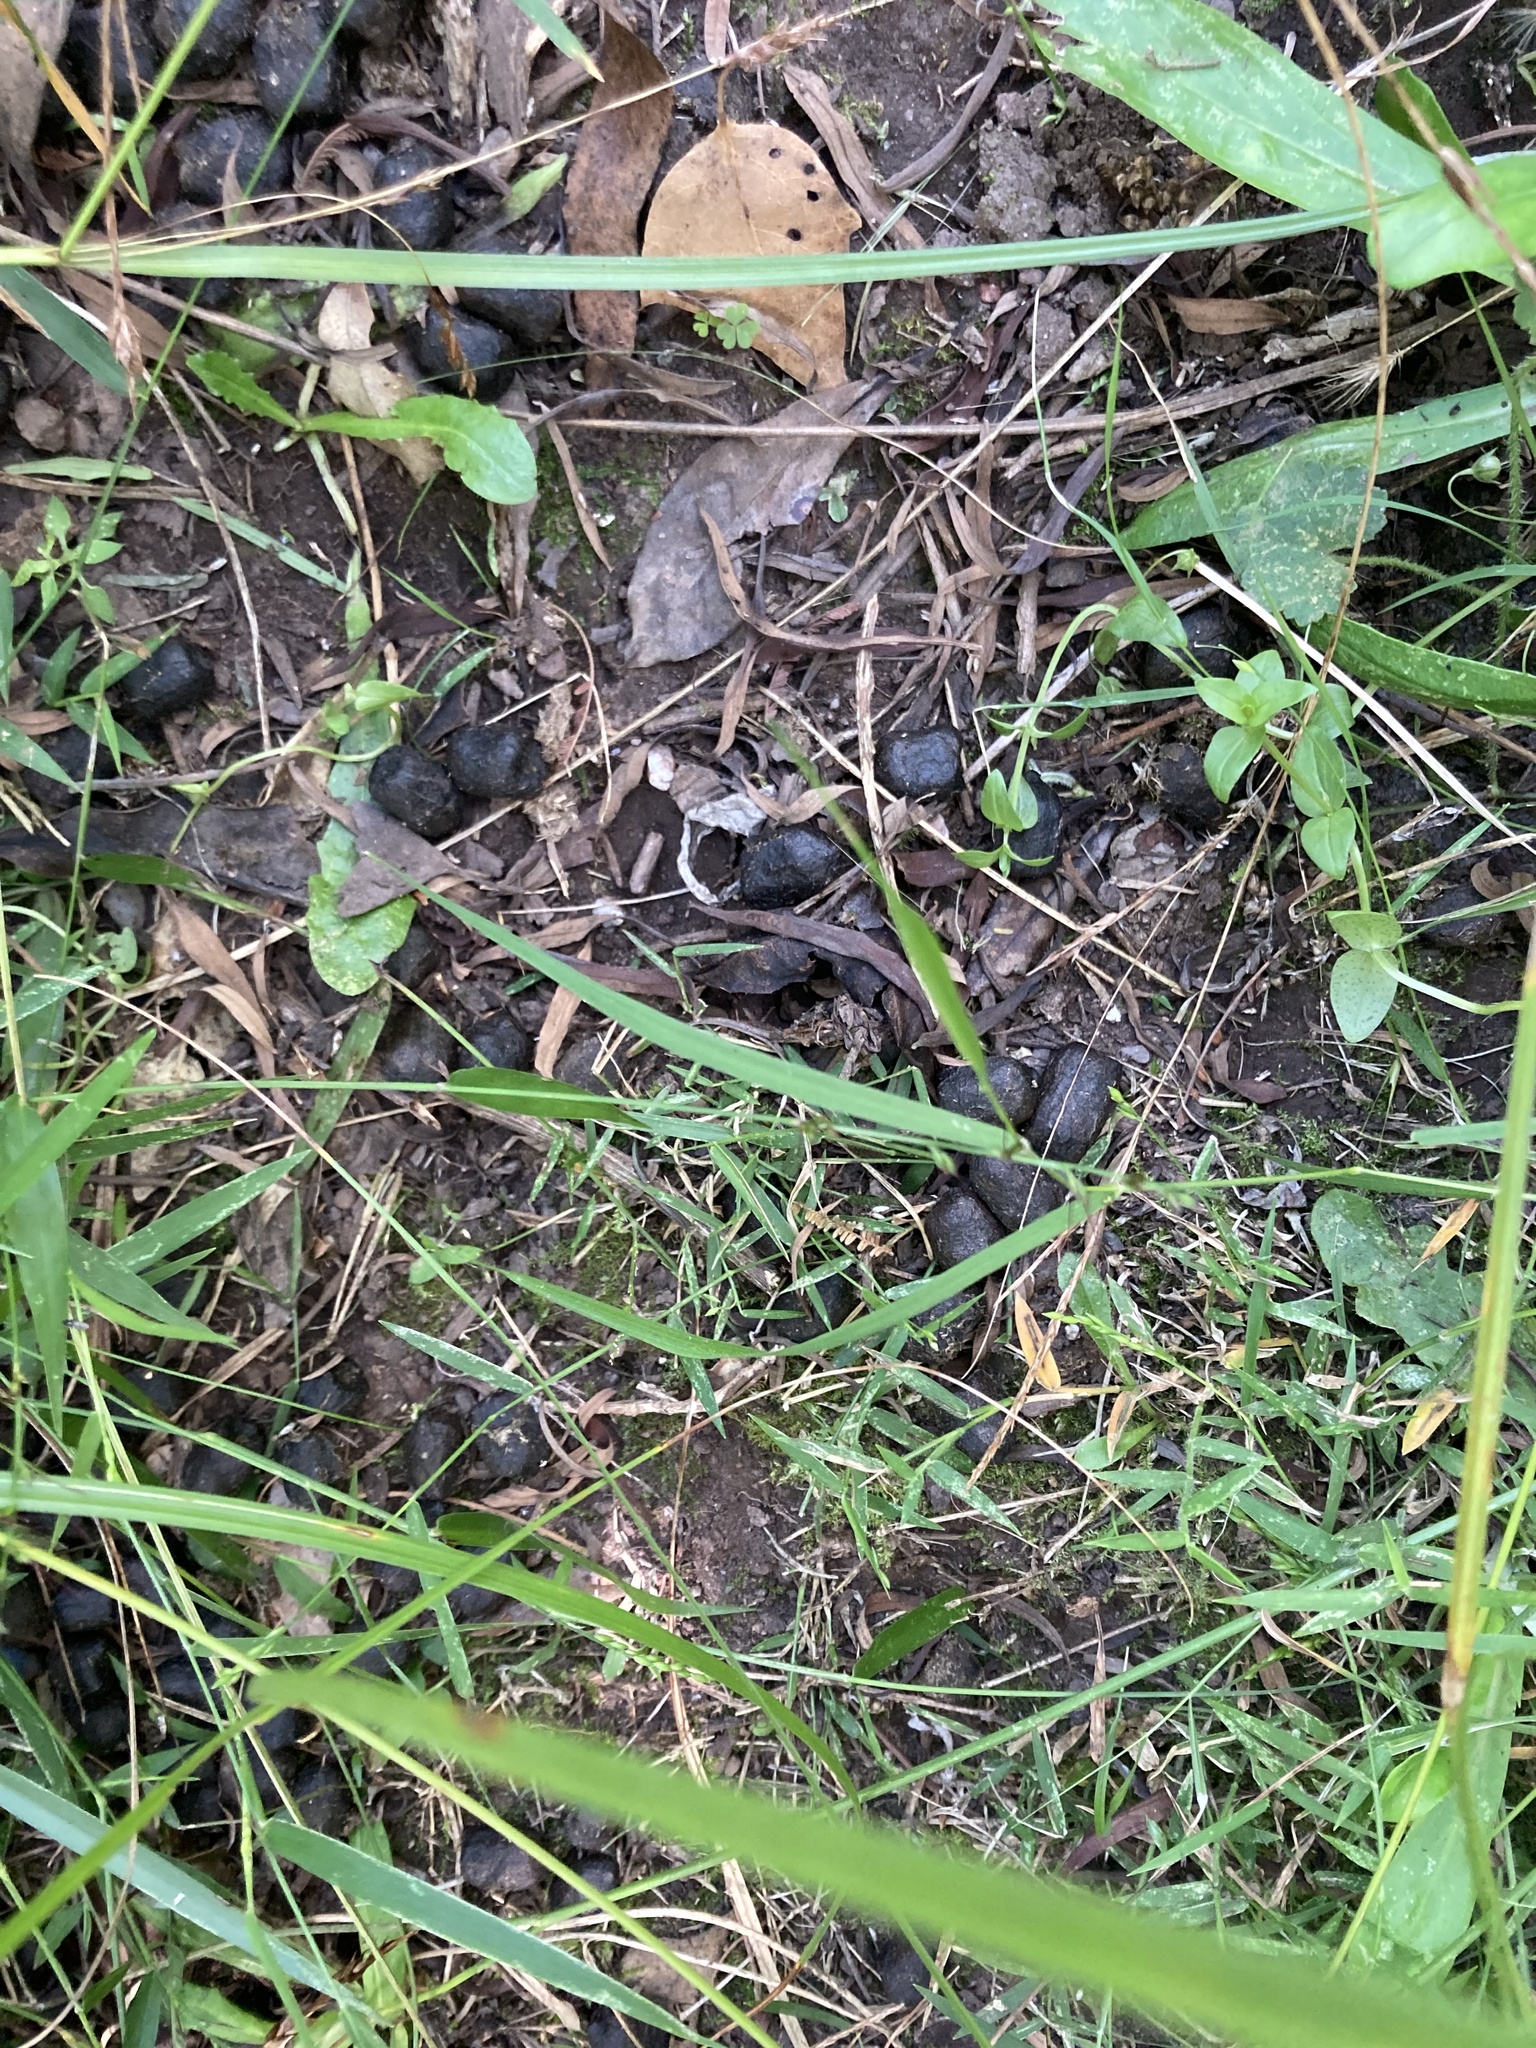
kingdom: Animalia
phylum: Chordata
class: Mammalia
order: Artiodactyla
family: Cervidae
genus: Rusa
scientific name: Rusa unicolor
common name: Sambar
